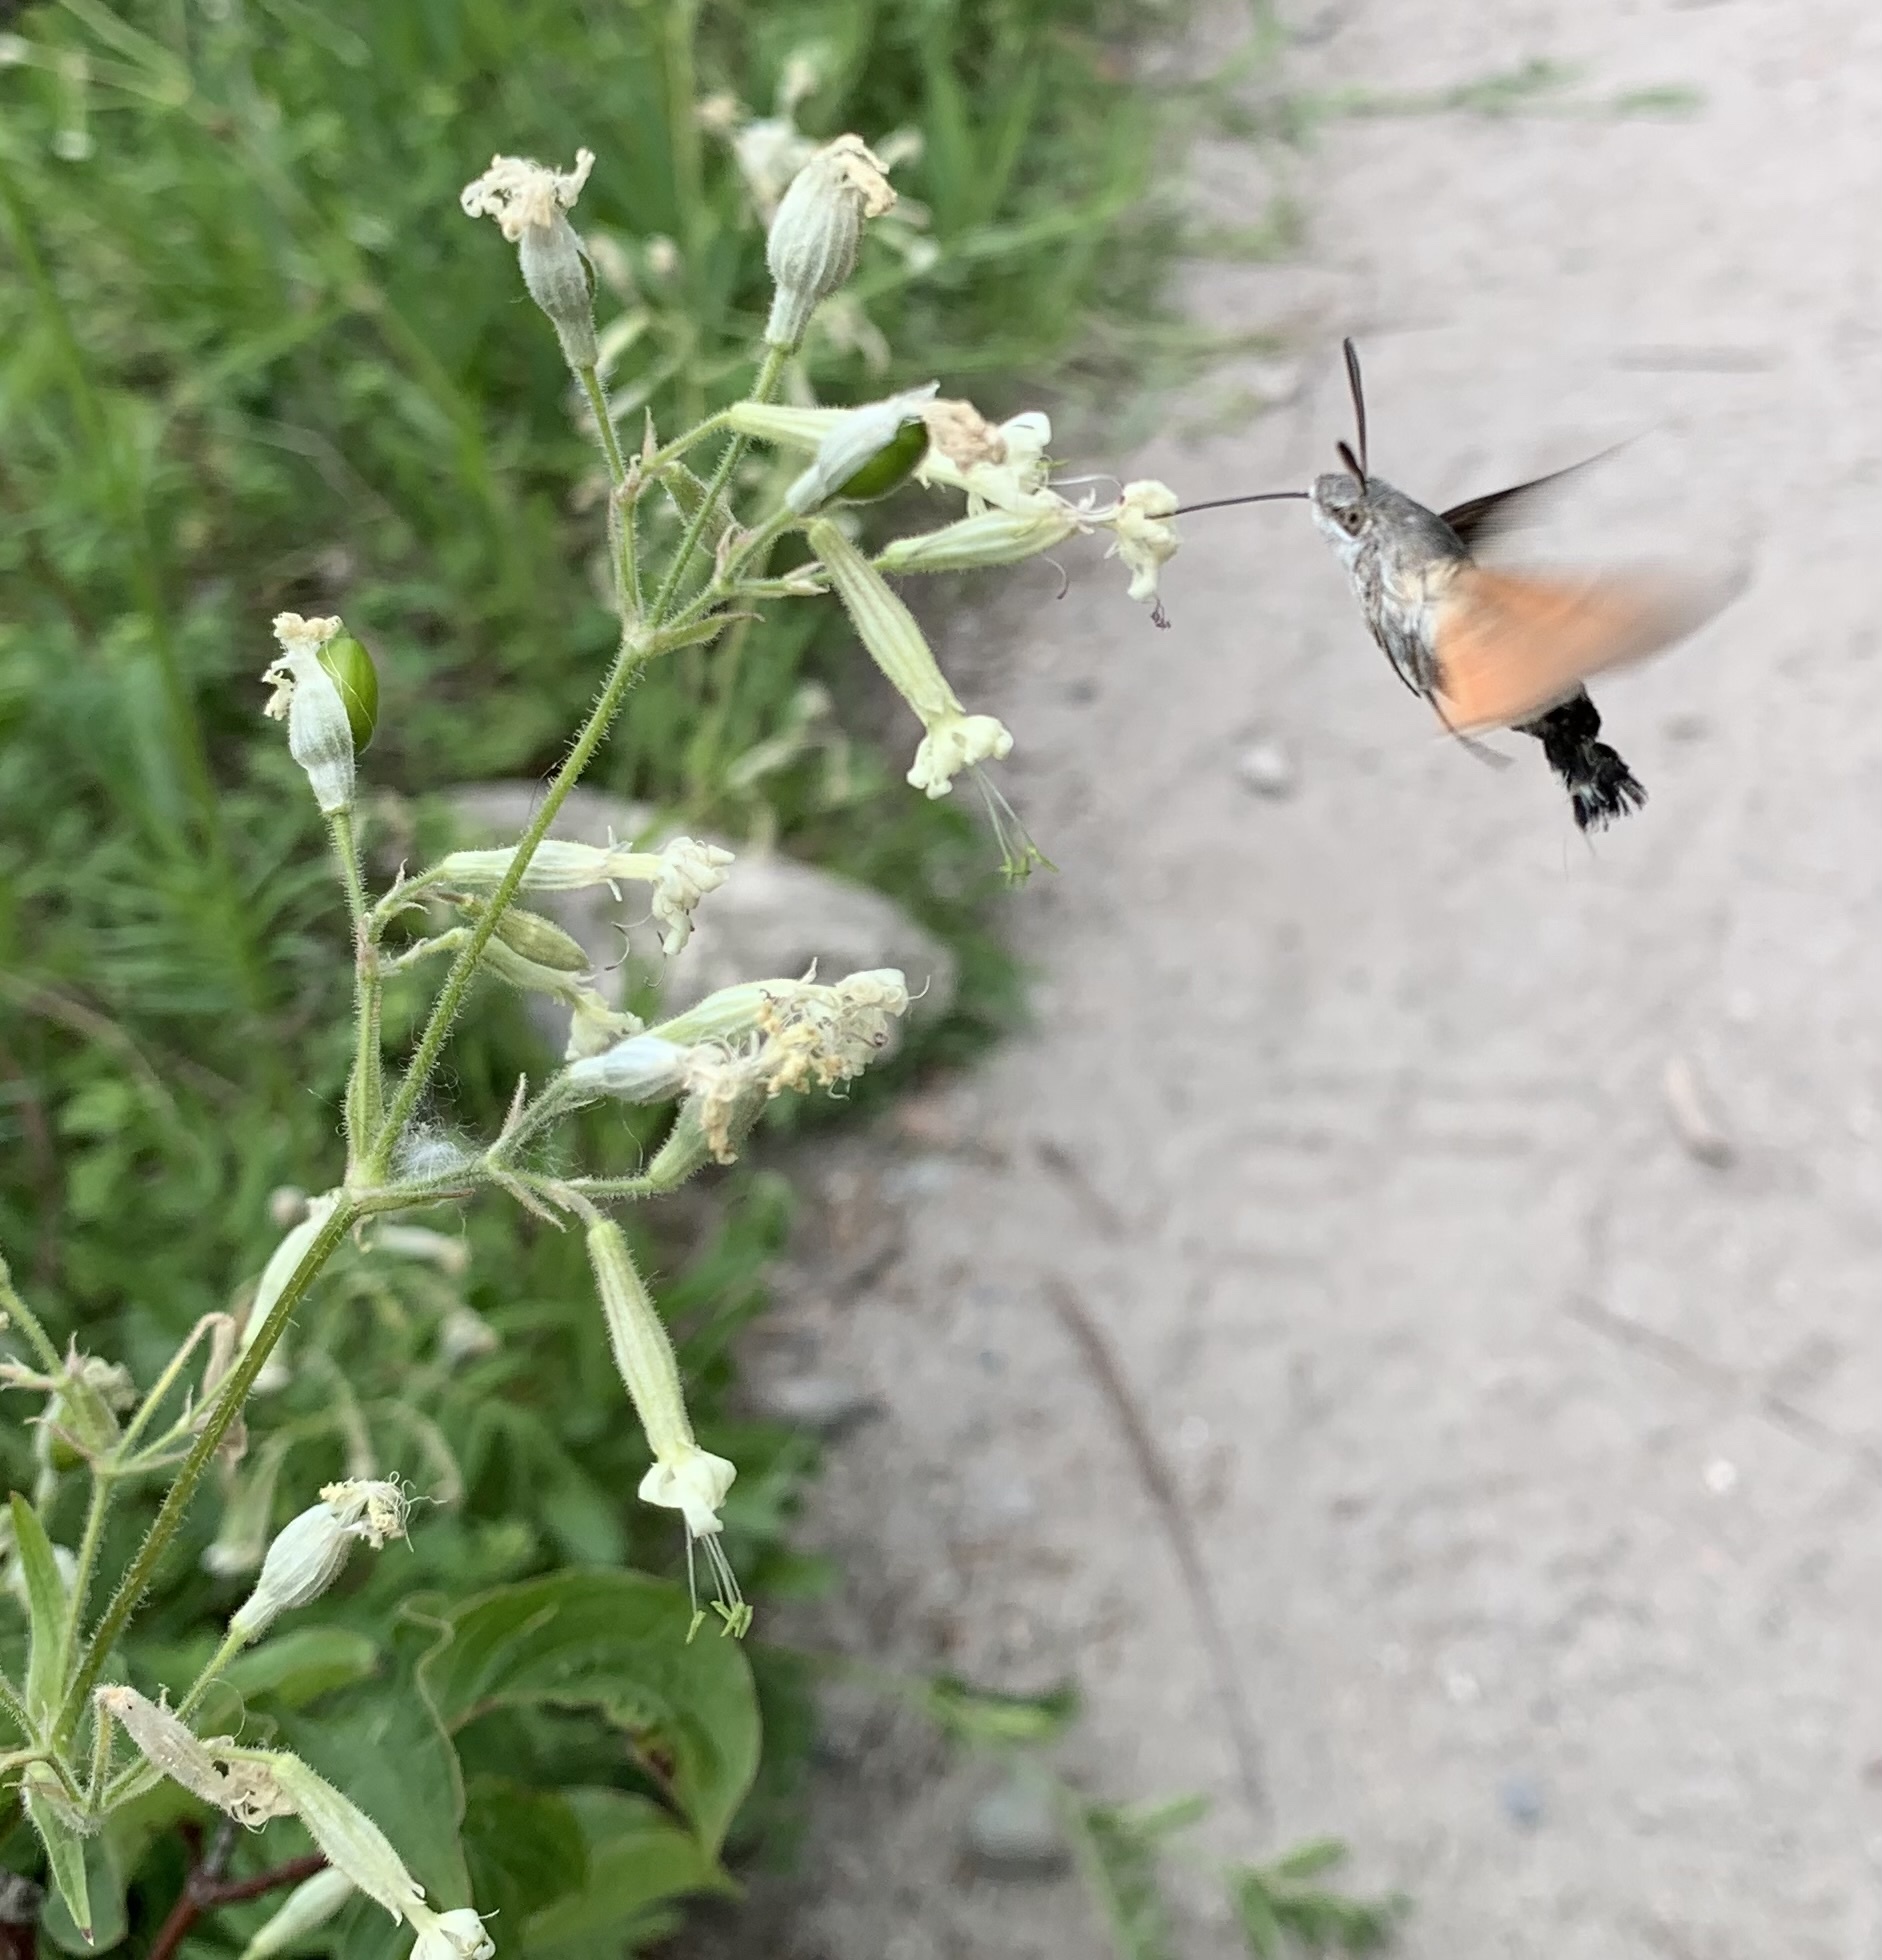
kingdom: Animalia
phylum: Arthropoda
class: Insecta
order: Lepidoptera
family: Sphingidae
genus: Macroglossum
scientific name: Macroglossum stellatarum
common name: Humming-bird hawk-moth
